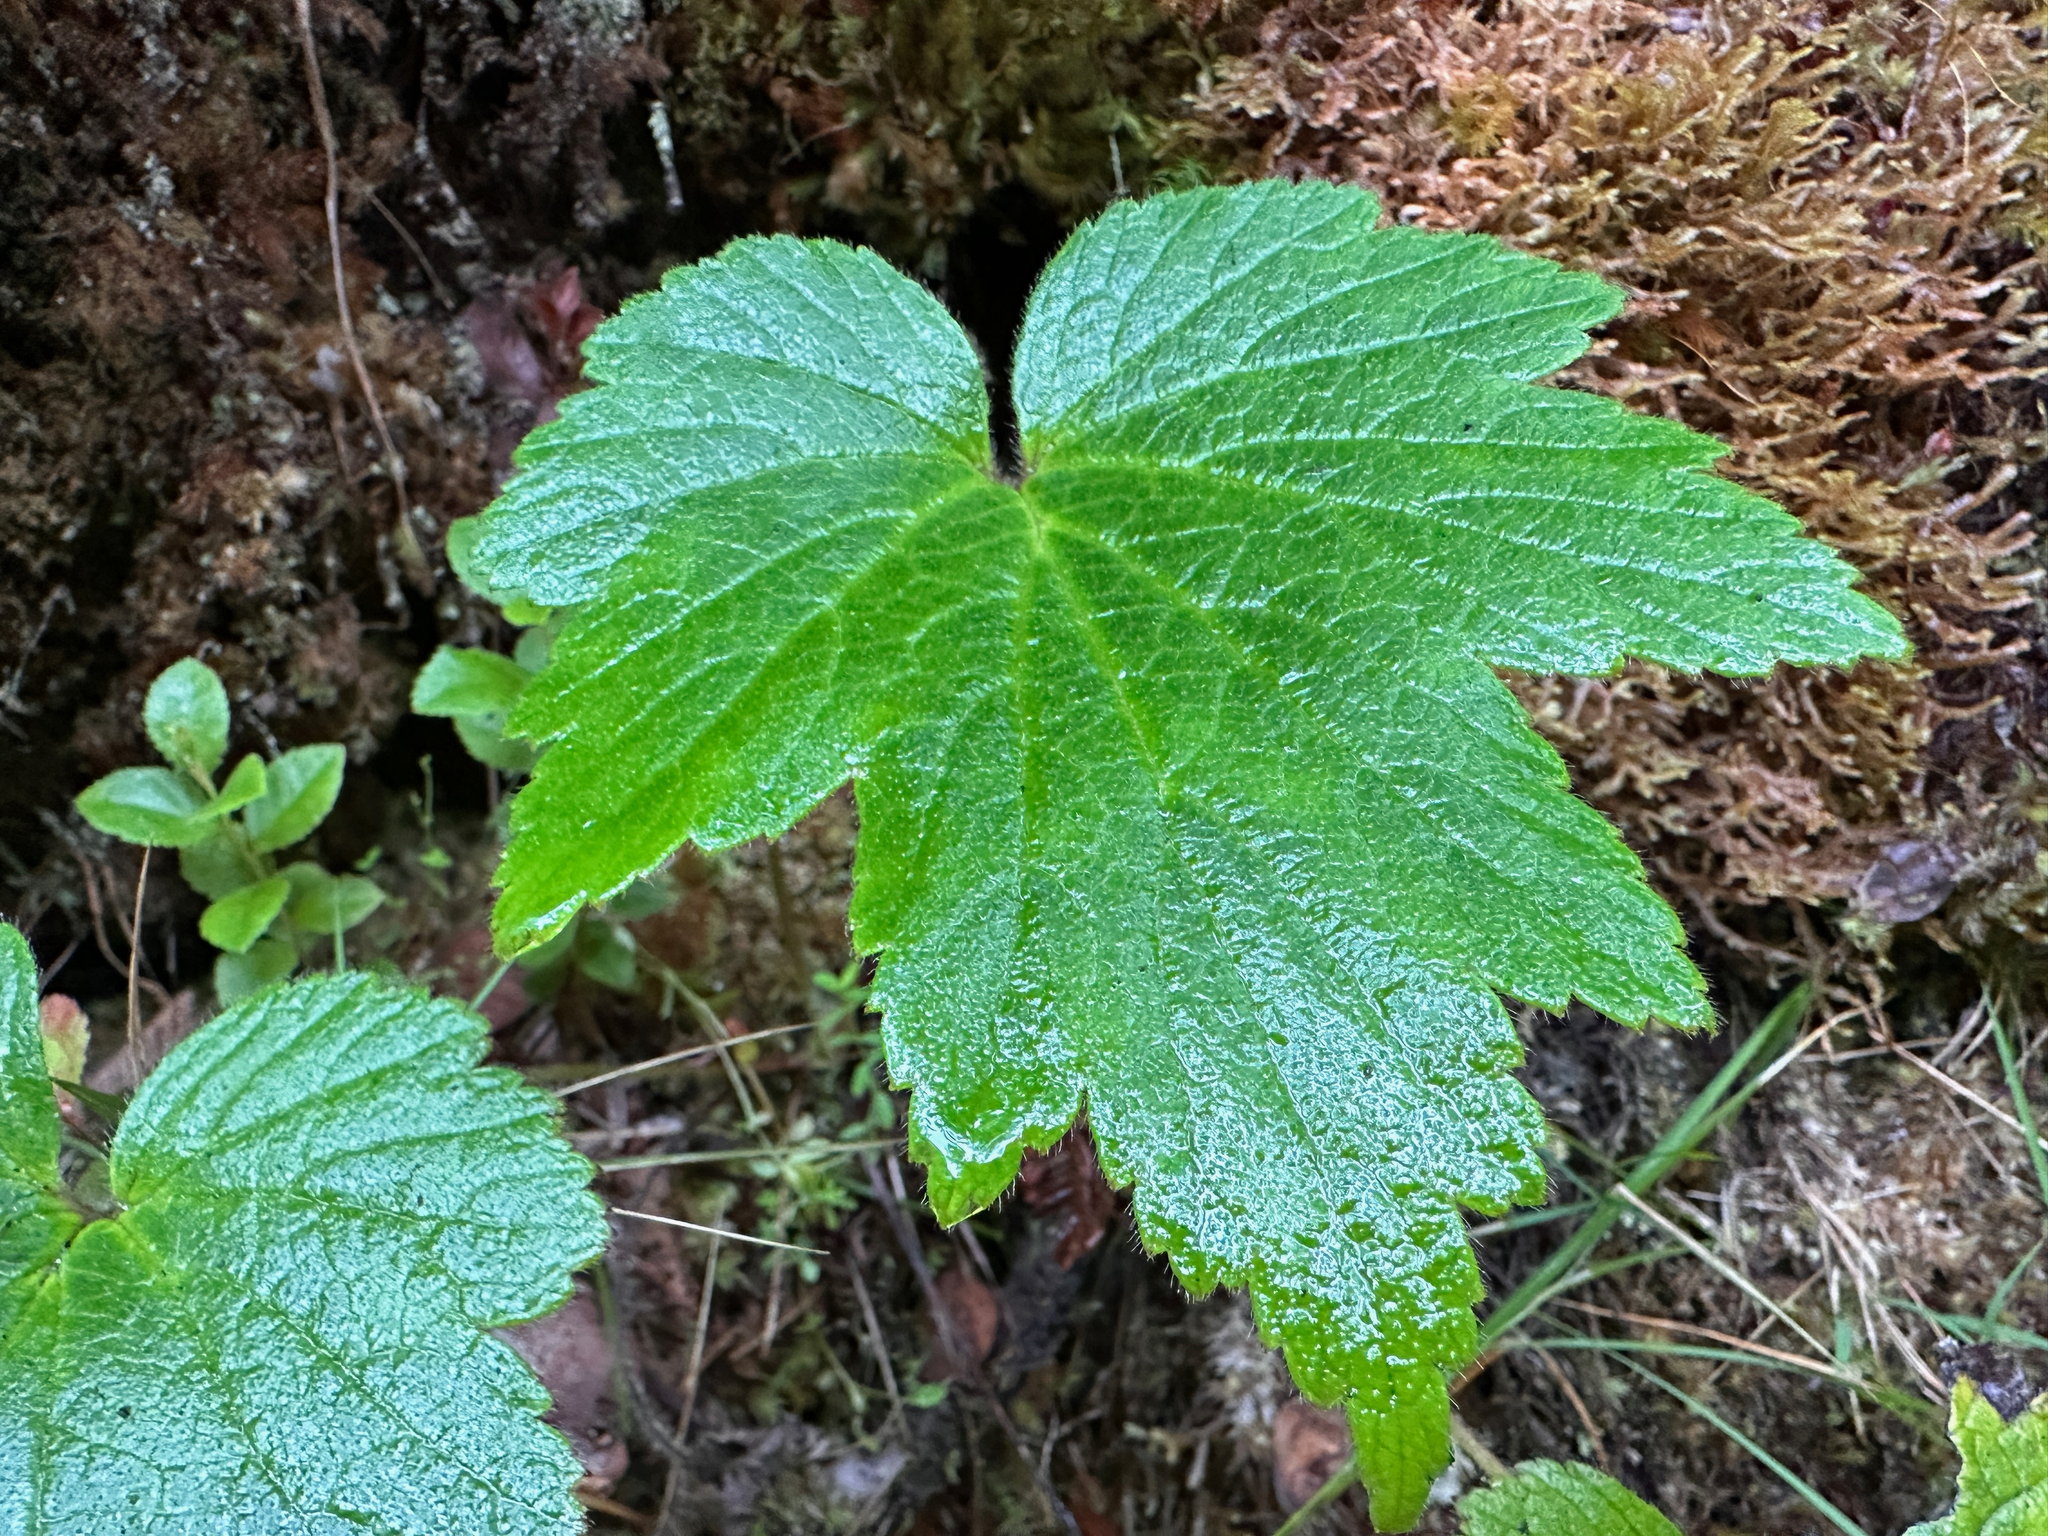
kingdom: Plantae
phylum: Tracheophyta
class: Magnoliopsida
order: Ranunculales
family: Ranunculaceae
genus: Eriocapitella
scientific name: Eriocapitella japonica
